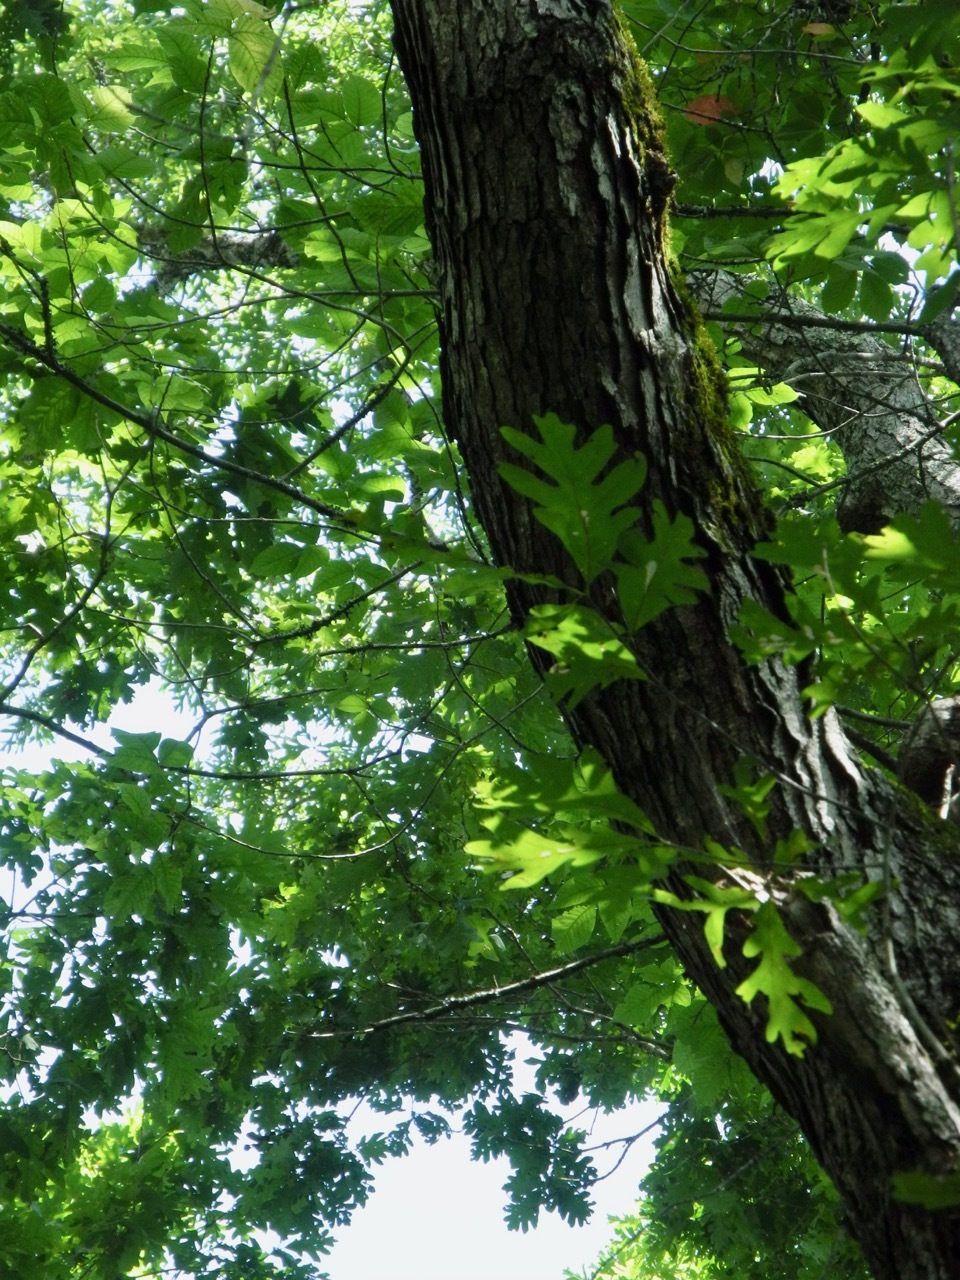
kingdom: Plantae
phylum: Tracheophyta
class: Magnoliopsida
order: Fagales
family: Fagaceae
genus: Quercus
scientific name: Quercus alba
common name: White oak
